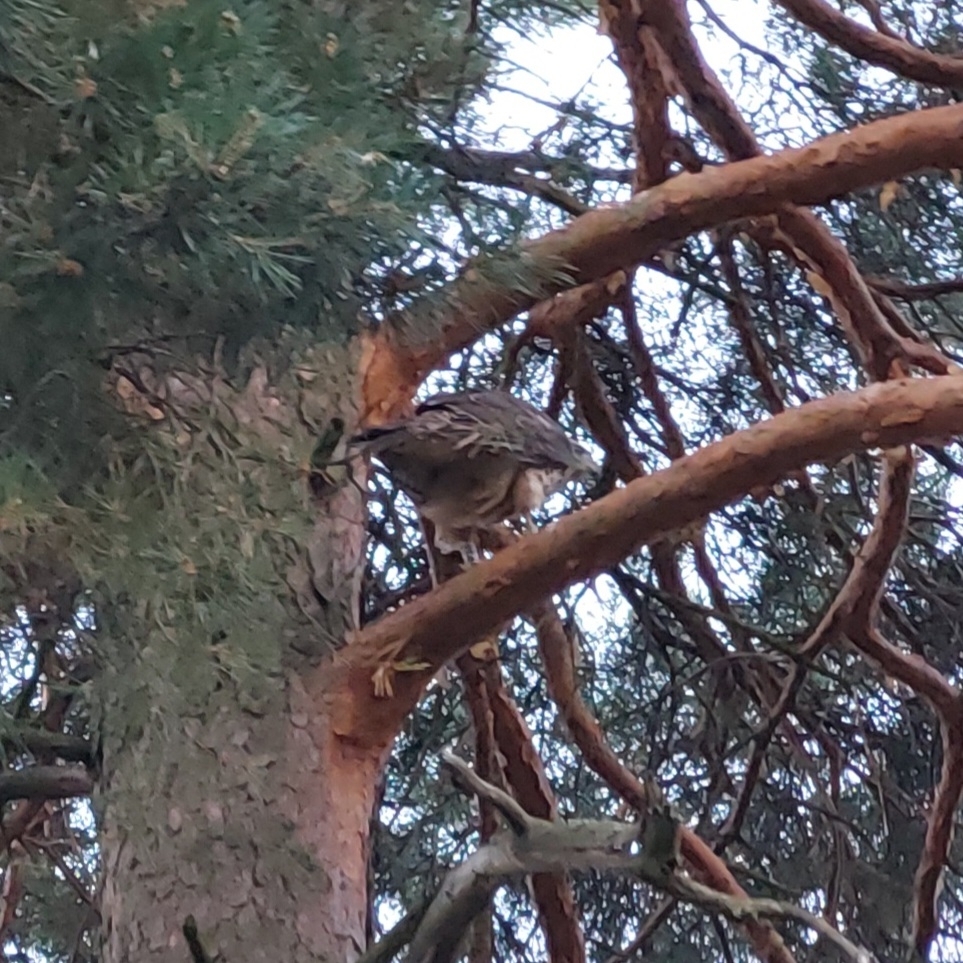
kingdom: Animalia
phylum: Chordata
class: Aves
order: Accipitriformes
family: Accipitridae
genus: Accipiter
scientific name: Accipiter gentilis
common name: Northern goshawk
